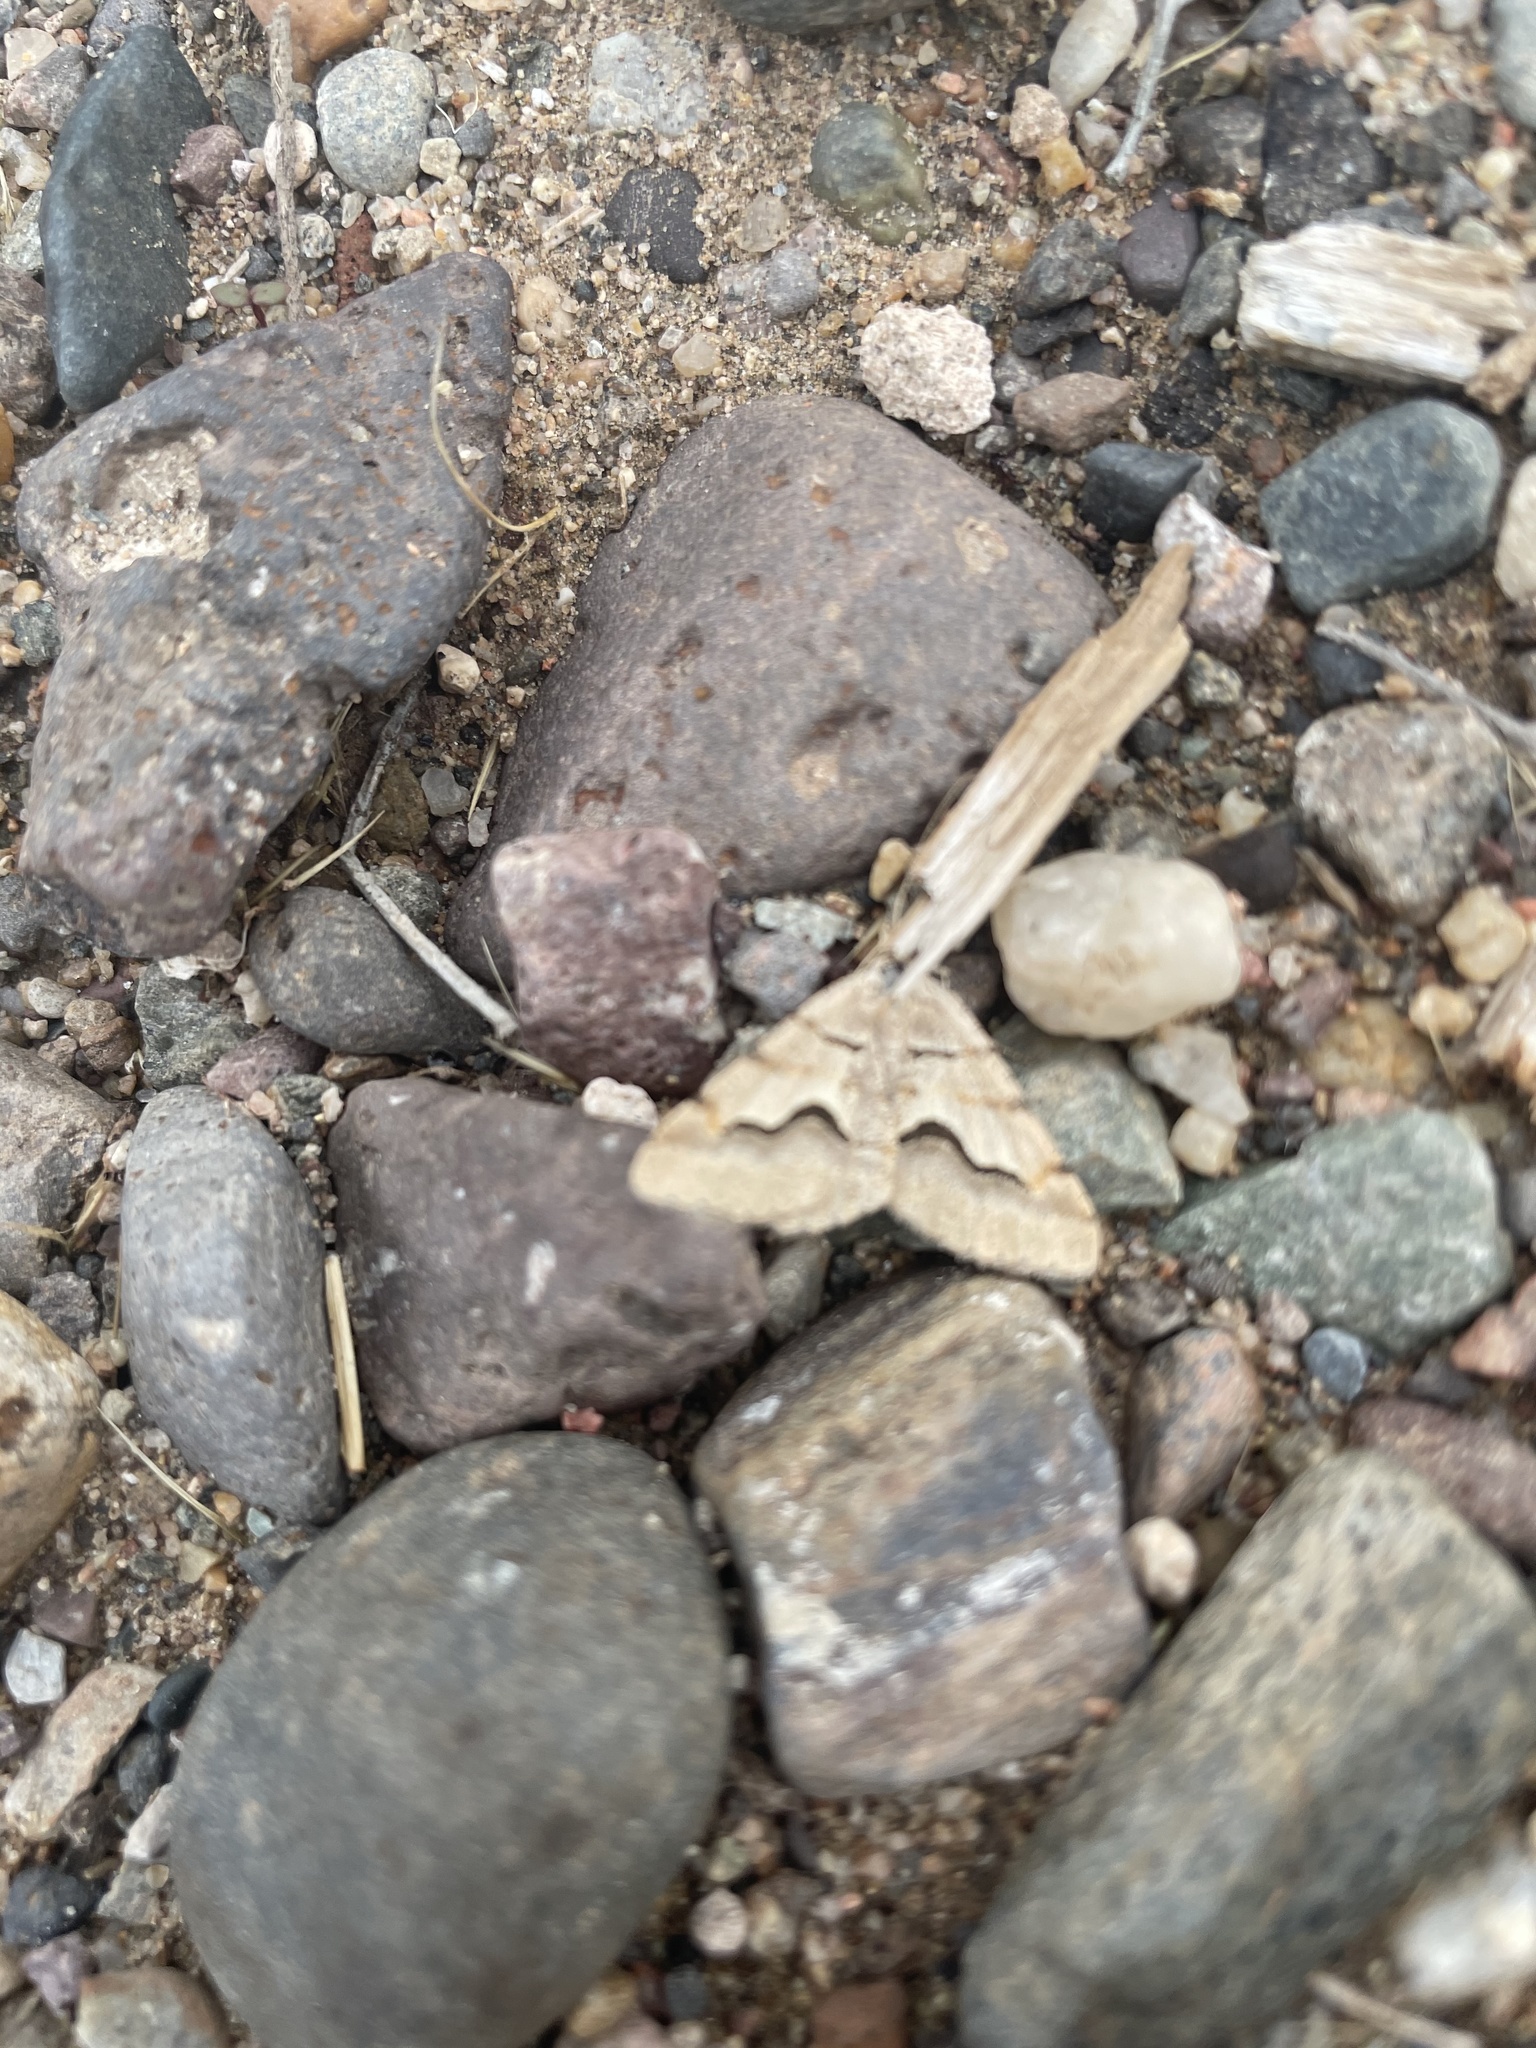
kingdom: Animalia
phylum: Arthropoda
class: Insecta
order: Lepidoptera
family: Geometridae
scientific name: Geometridae
